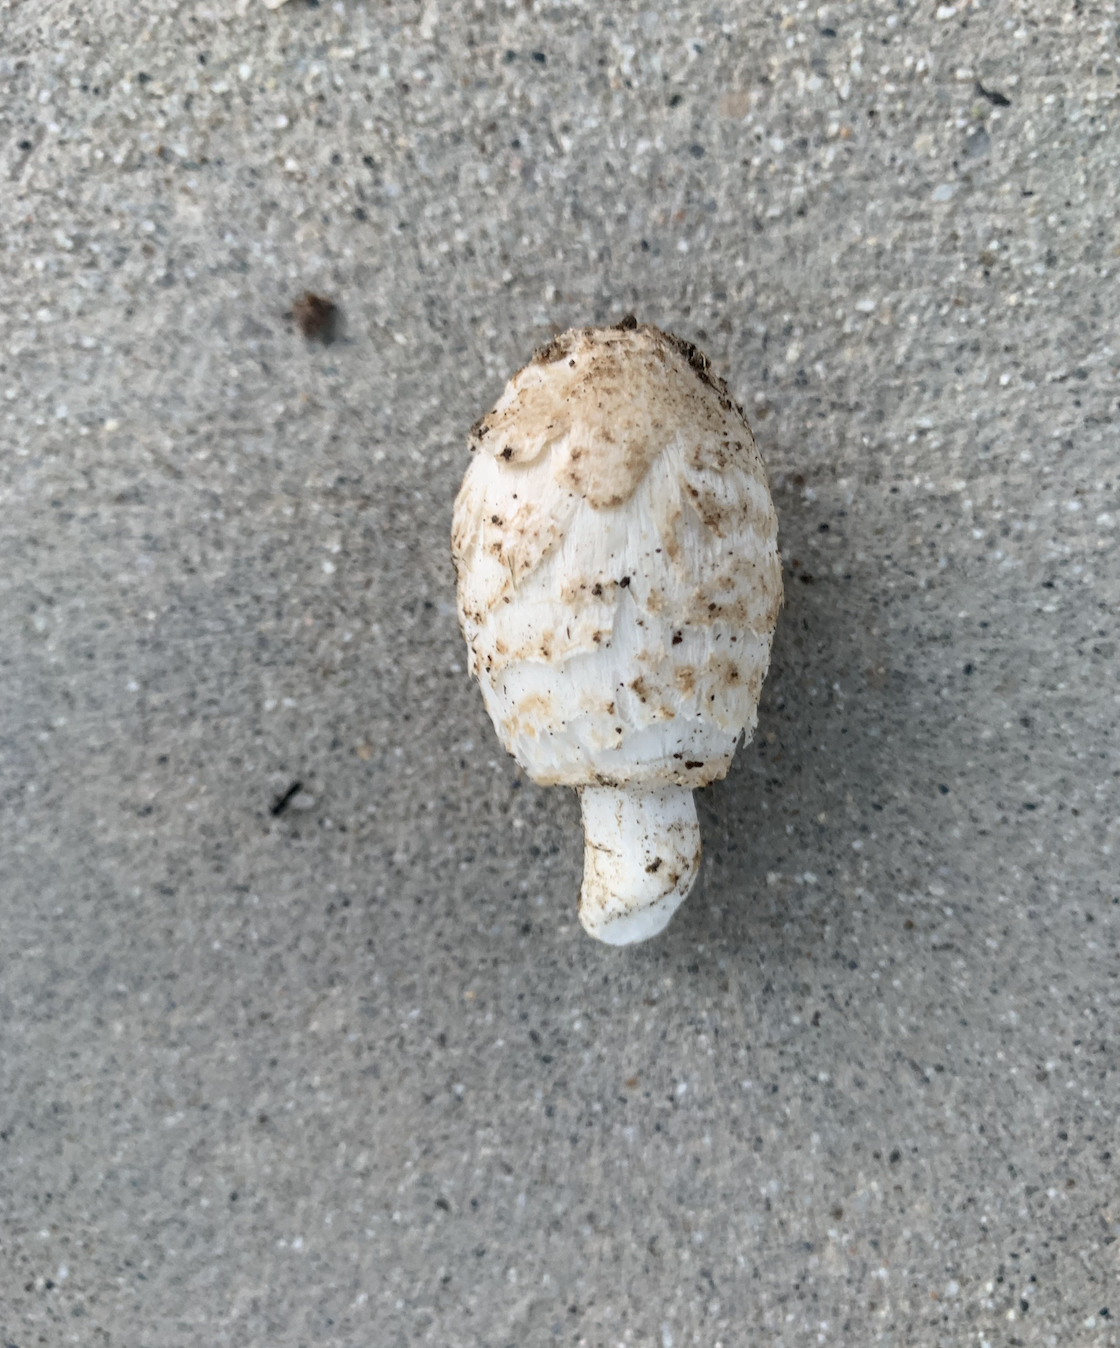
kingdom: Fungi
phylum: Basidiomycota
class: Agaricomycetes
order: Agaricales
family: Agaricaceae
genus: Coprinus
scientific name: Coprinus comatus
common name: Lawyer's wig
